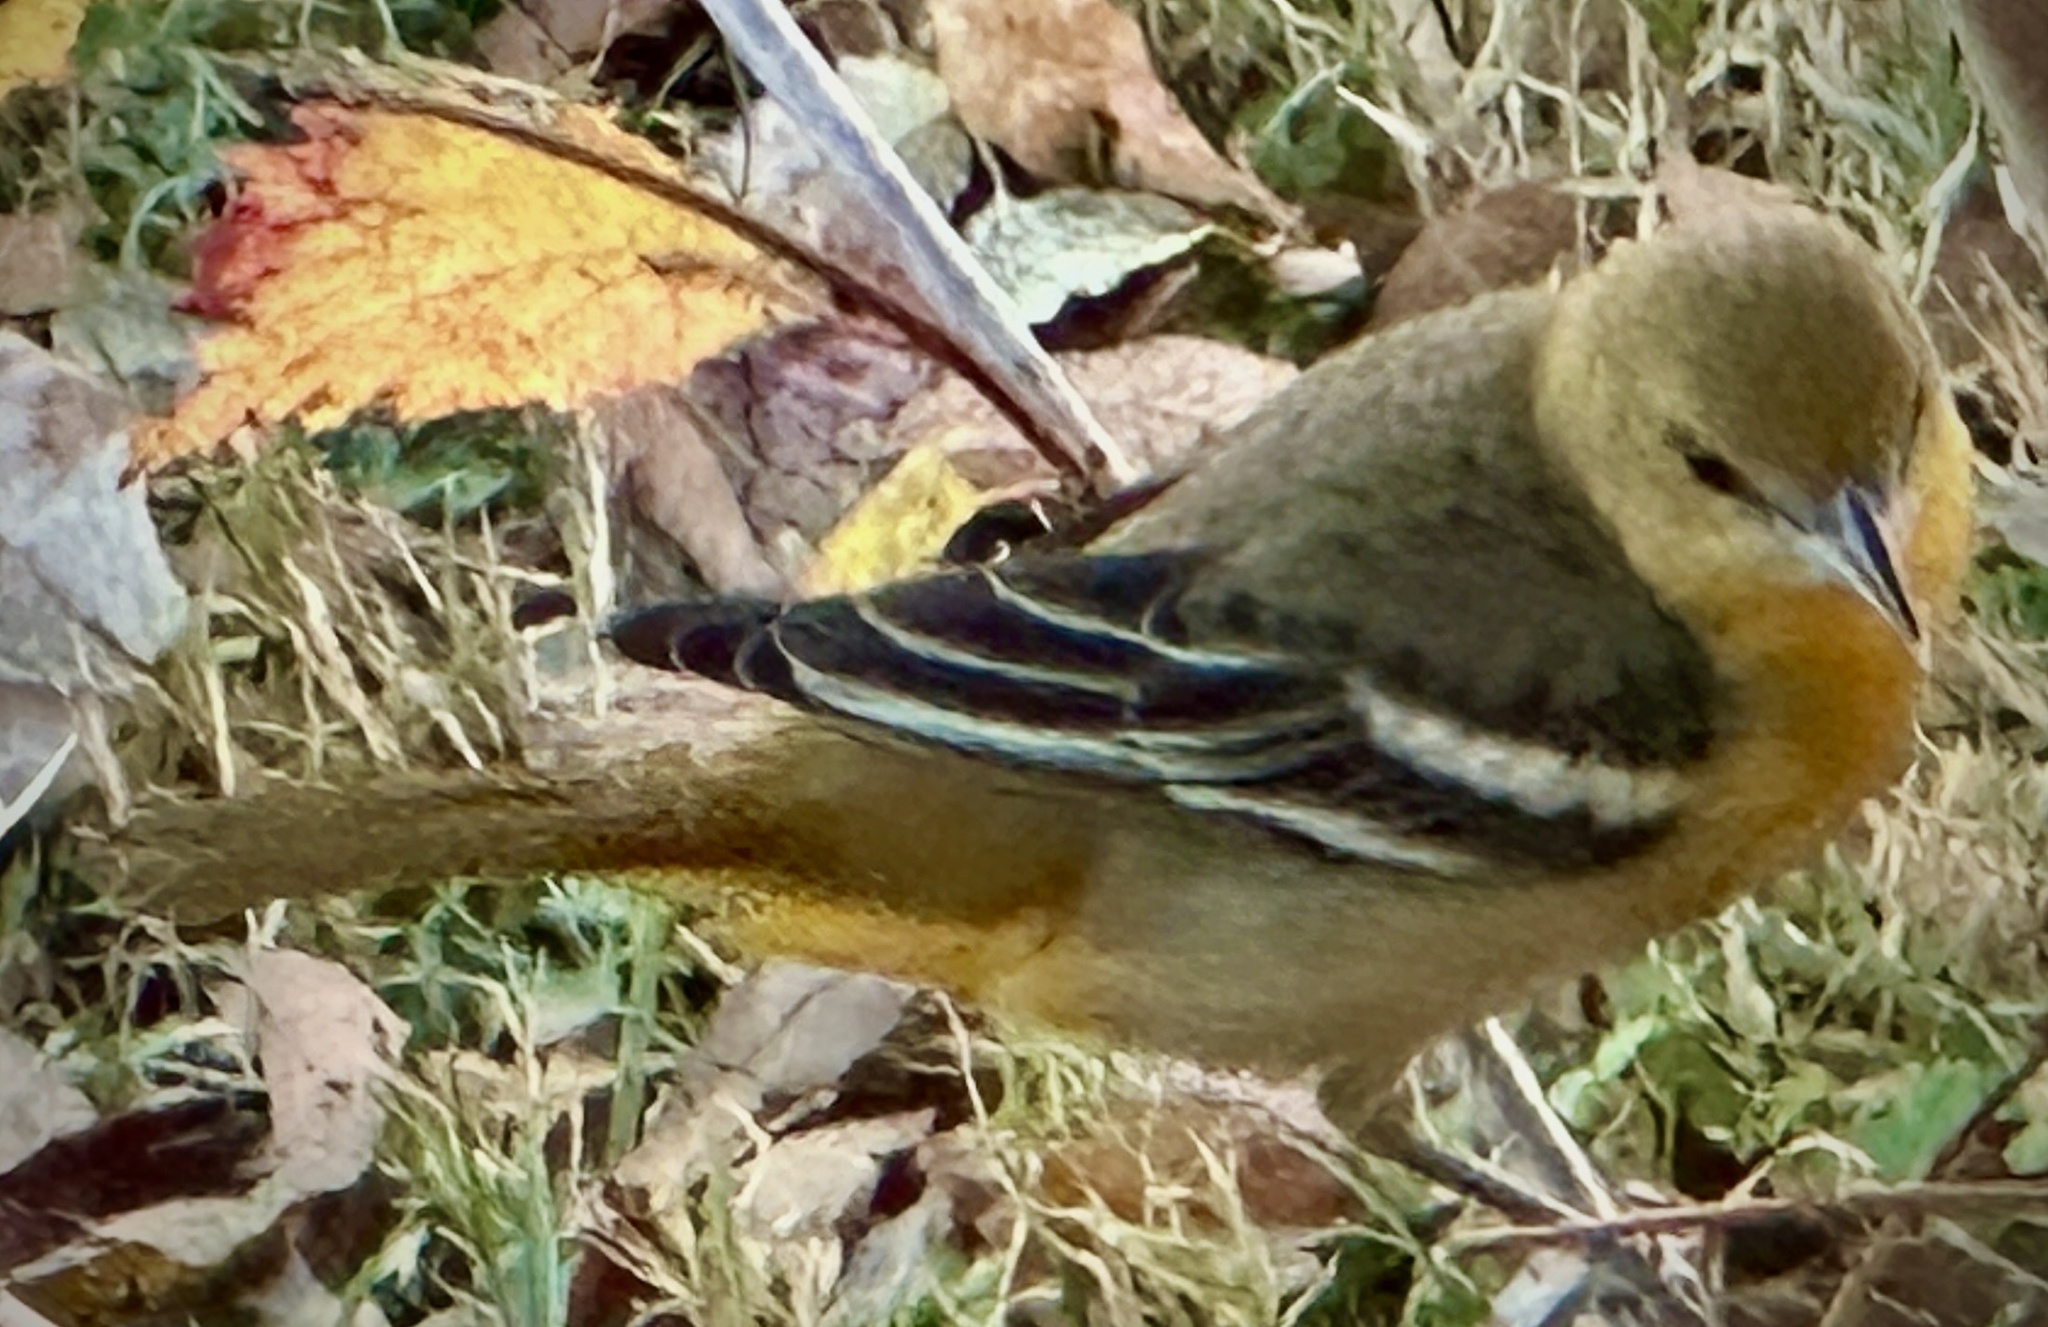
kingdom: Animalia
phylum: Chordata
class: Aves
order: Passeriformes
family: Icteridae
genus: Icterus
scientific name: Icterus galbula
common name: Baltimore oriole
